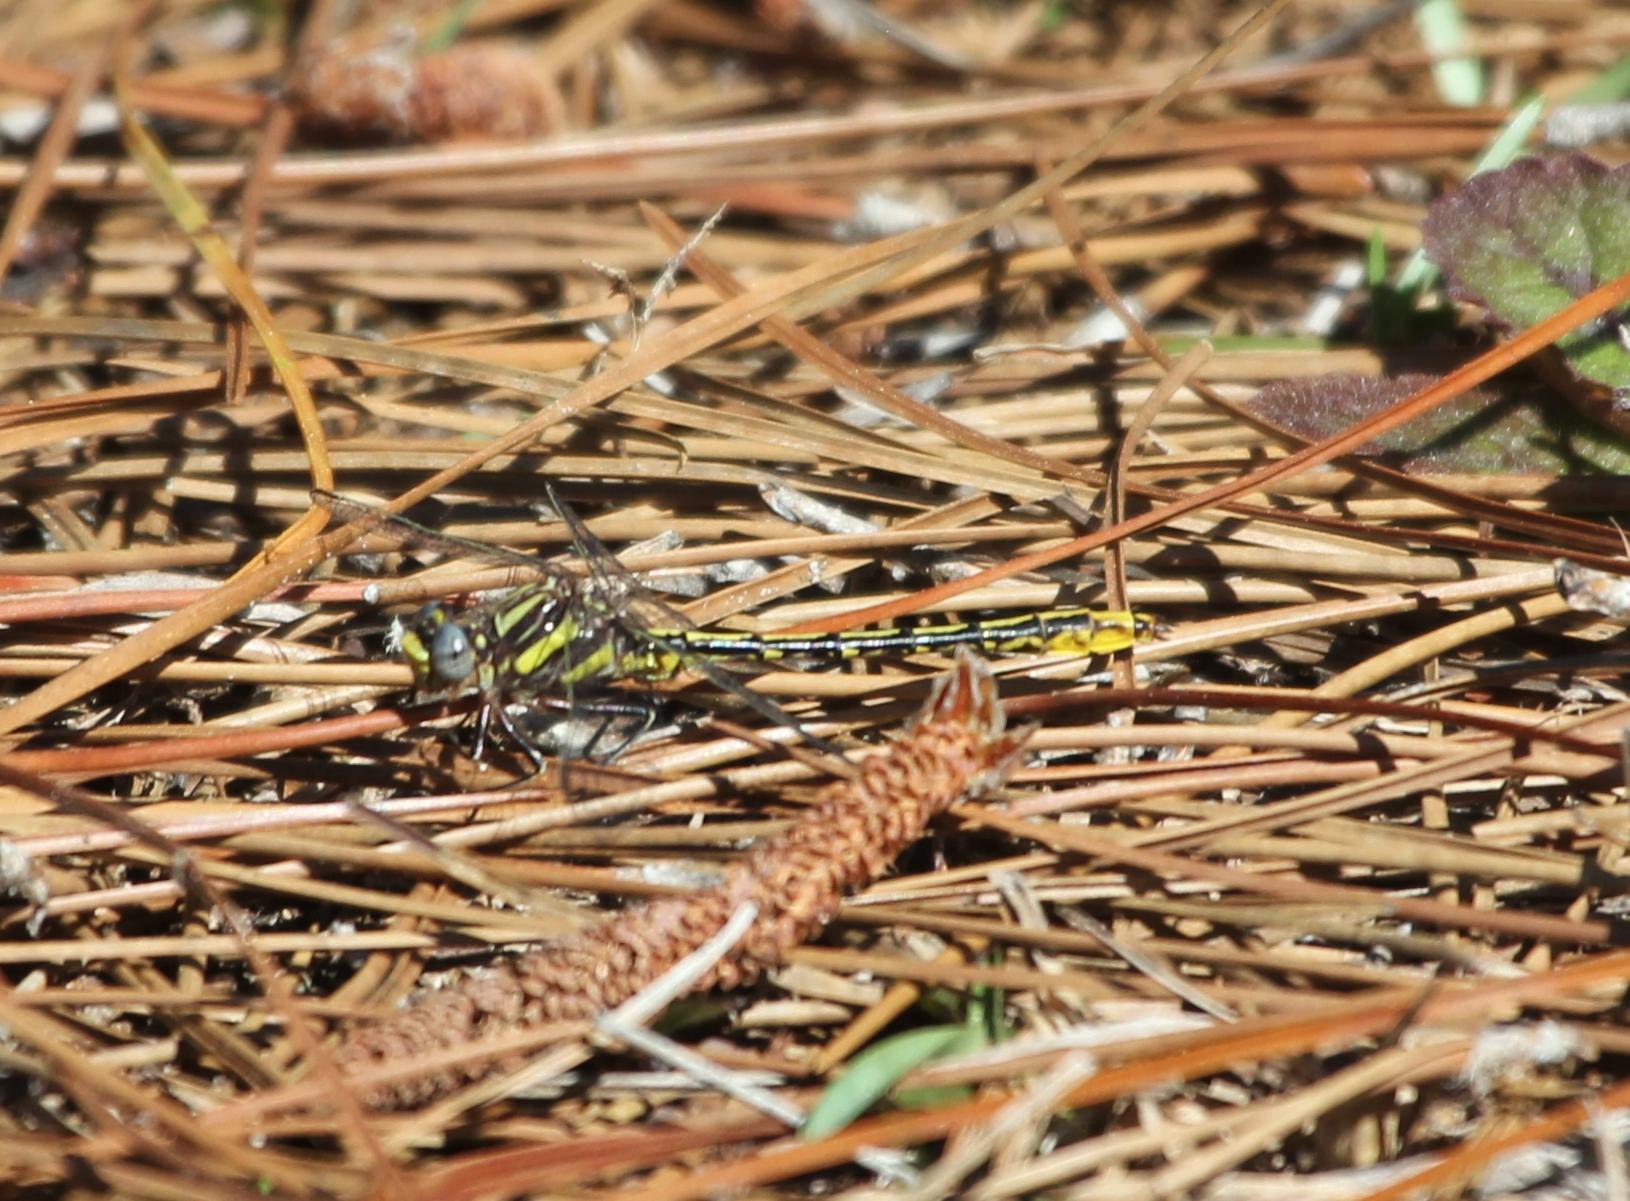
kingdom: Animalia
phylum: Arthropoda
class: Insecta
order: Odonata
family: Gomphidae
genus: Phanogomphus
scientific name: Phanogomphus exilis
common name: Lancet clubtail
